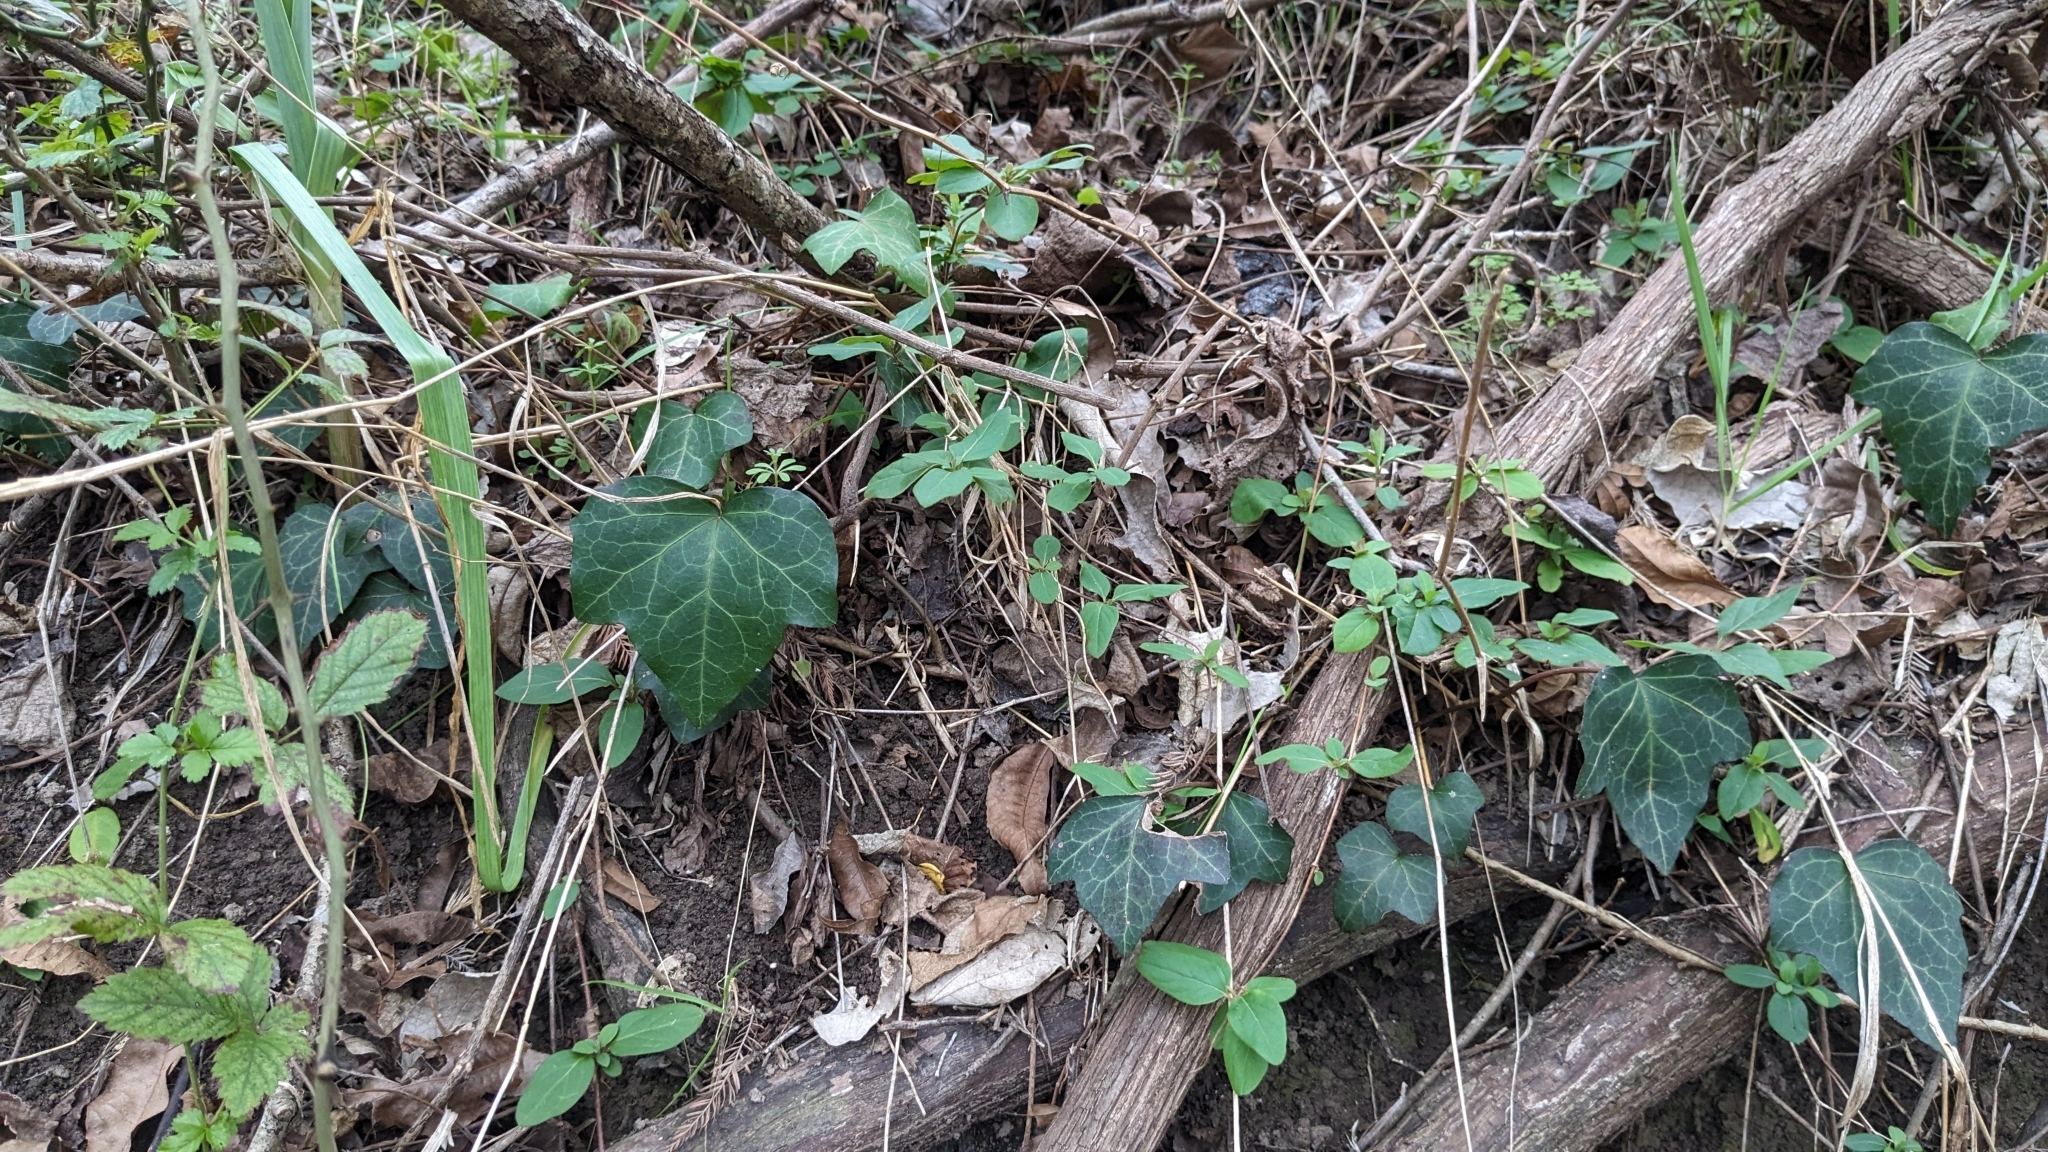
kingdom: Plantae
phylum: Tracheophyta
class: Magnoliopsida
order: Apiales
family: Araliaceae
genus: Hedera
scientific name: Hedera helix
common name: Ivy
